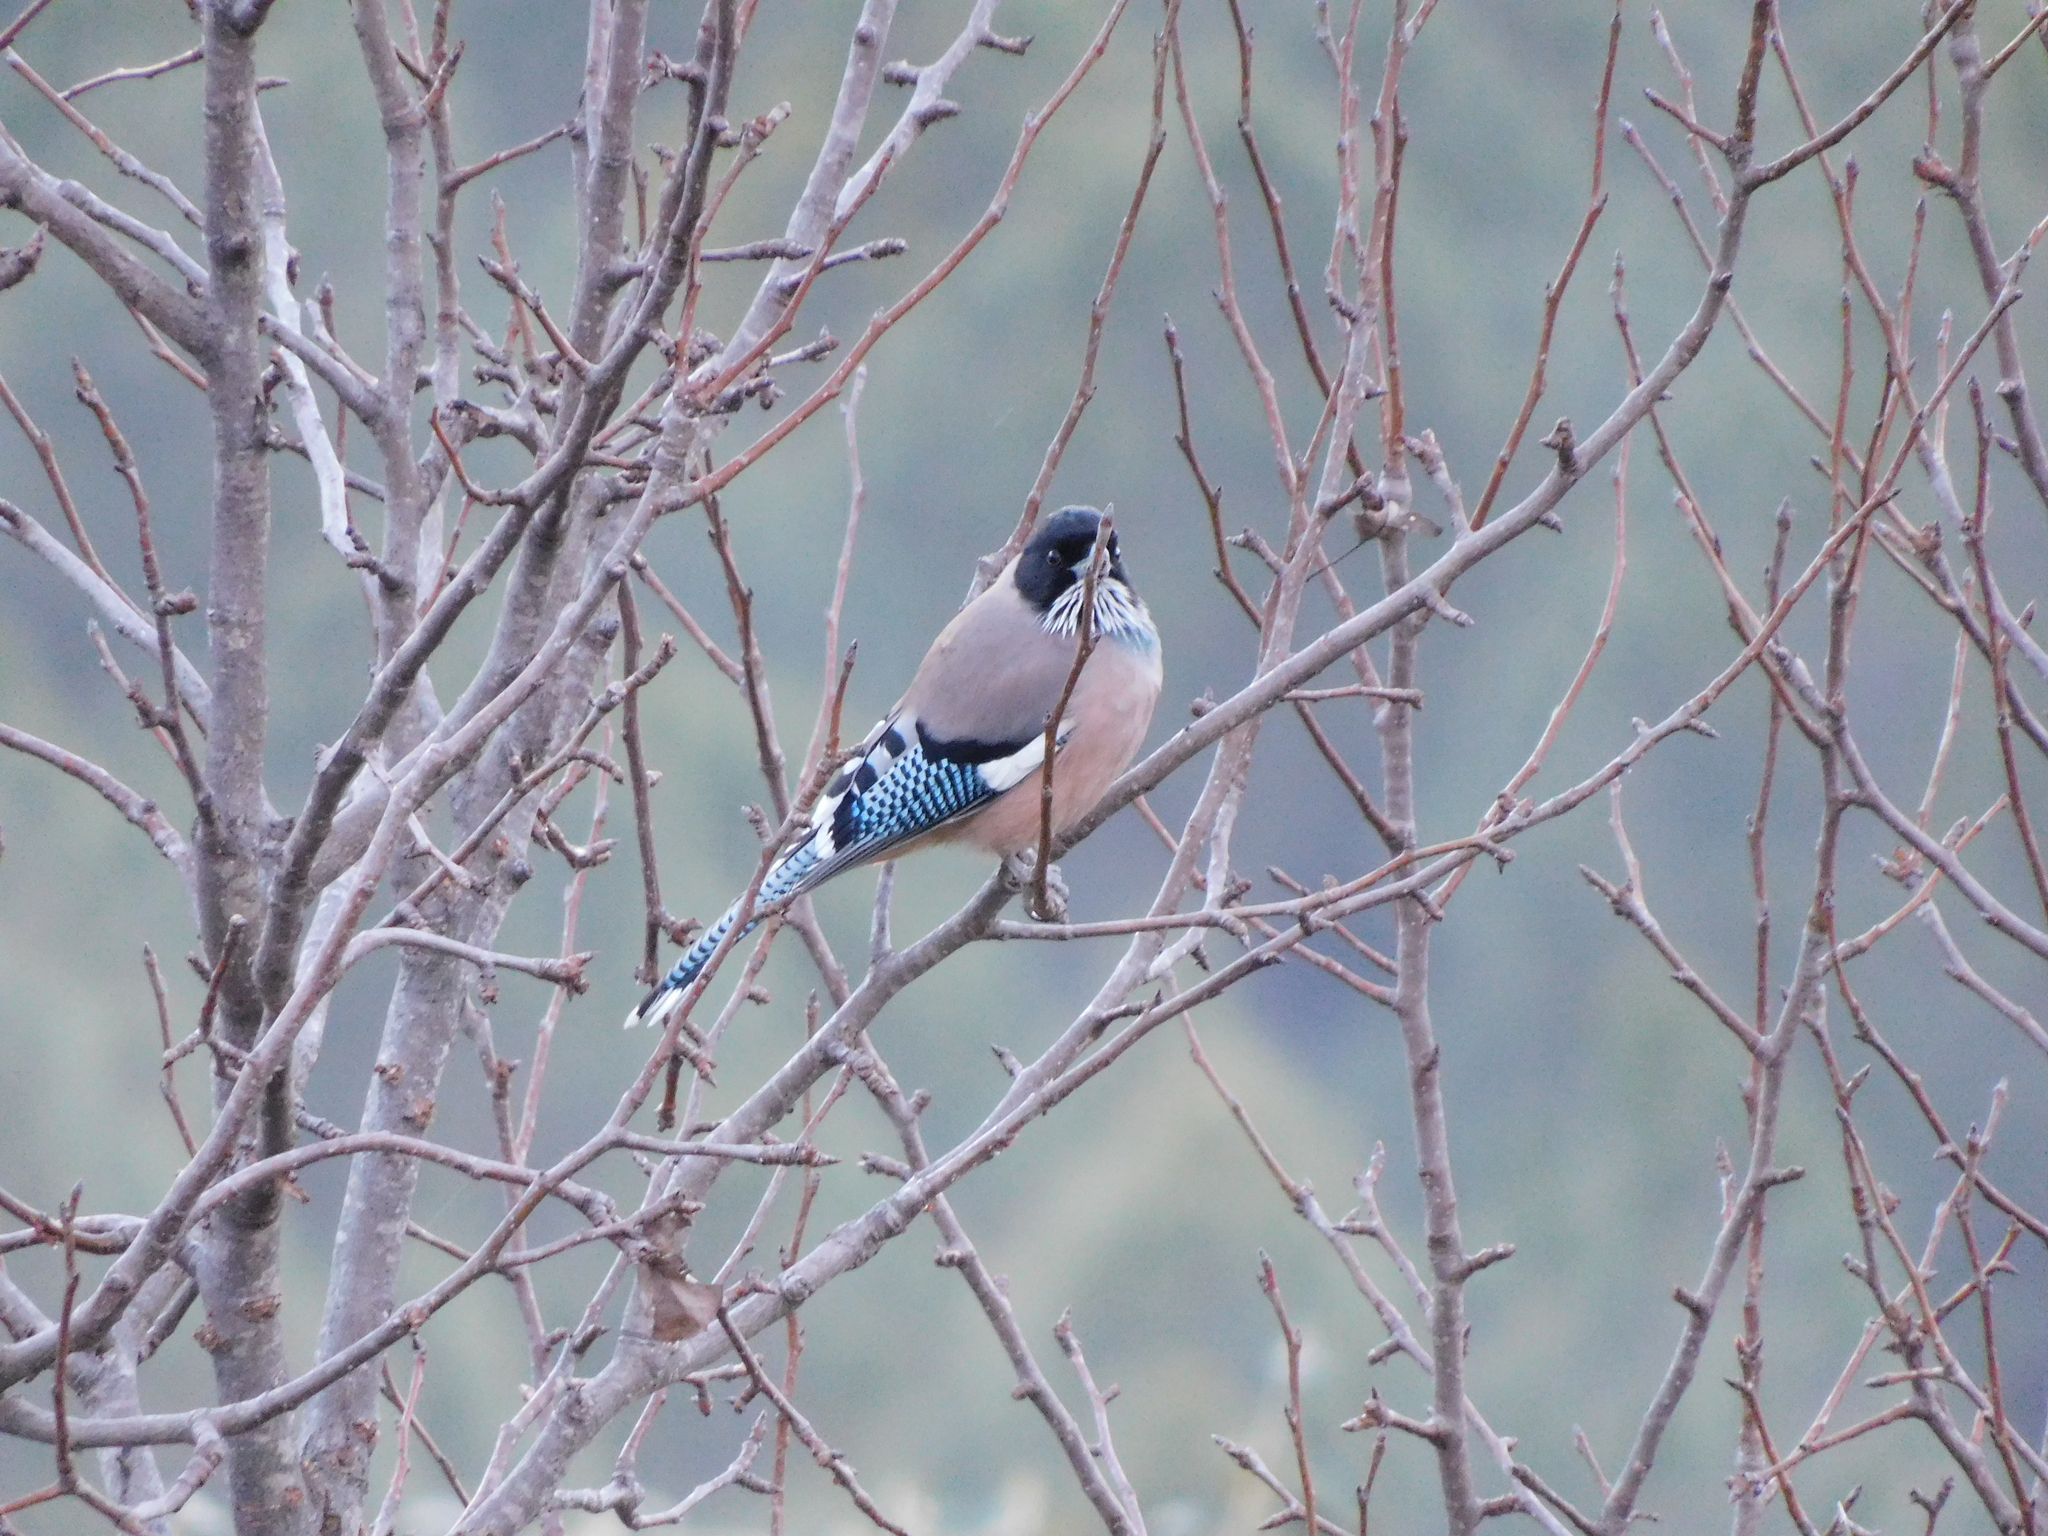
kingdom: Animalia
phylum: Chordata
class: Aves
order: Passeriformes
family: Corvidae
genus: Garrulus
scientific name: Garrulus lanceolatus
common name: Black-headed jay
